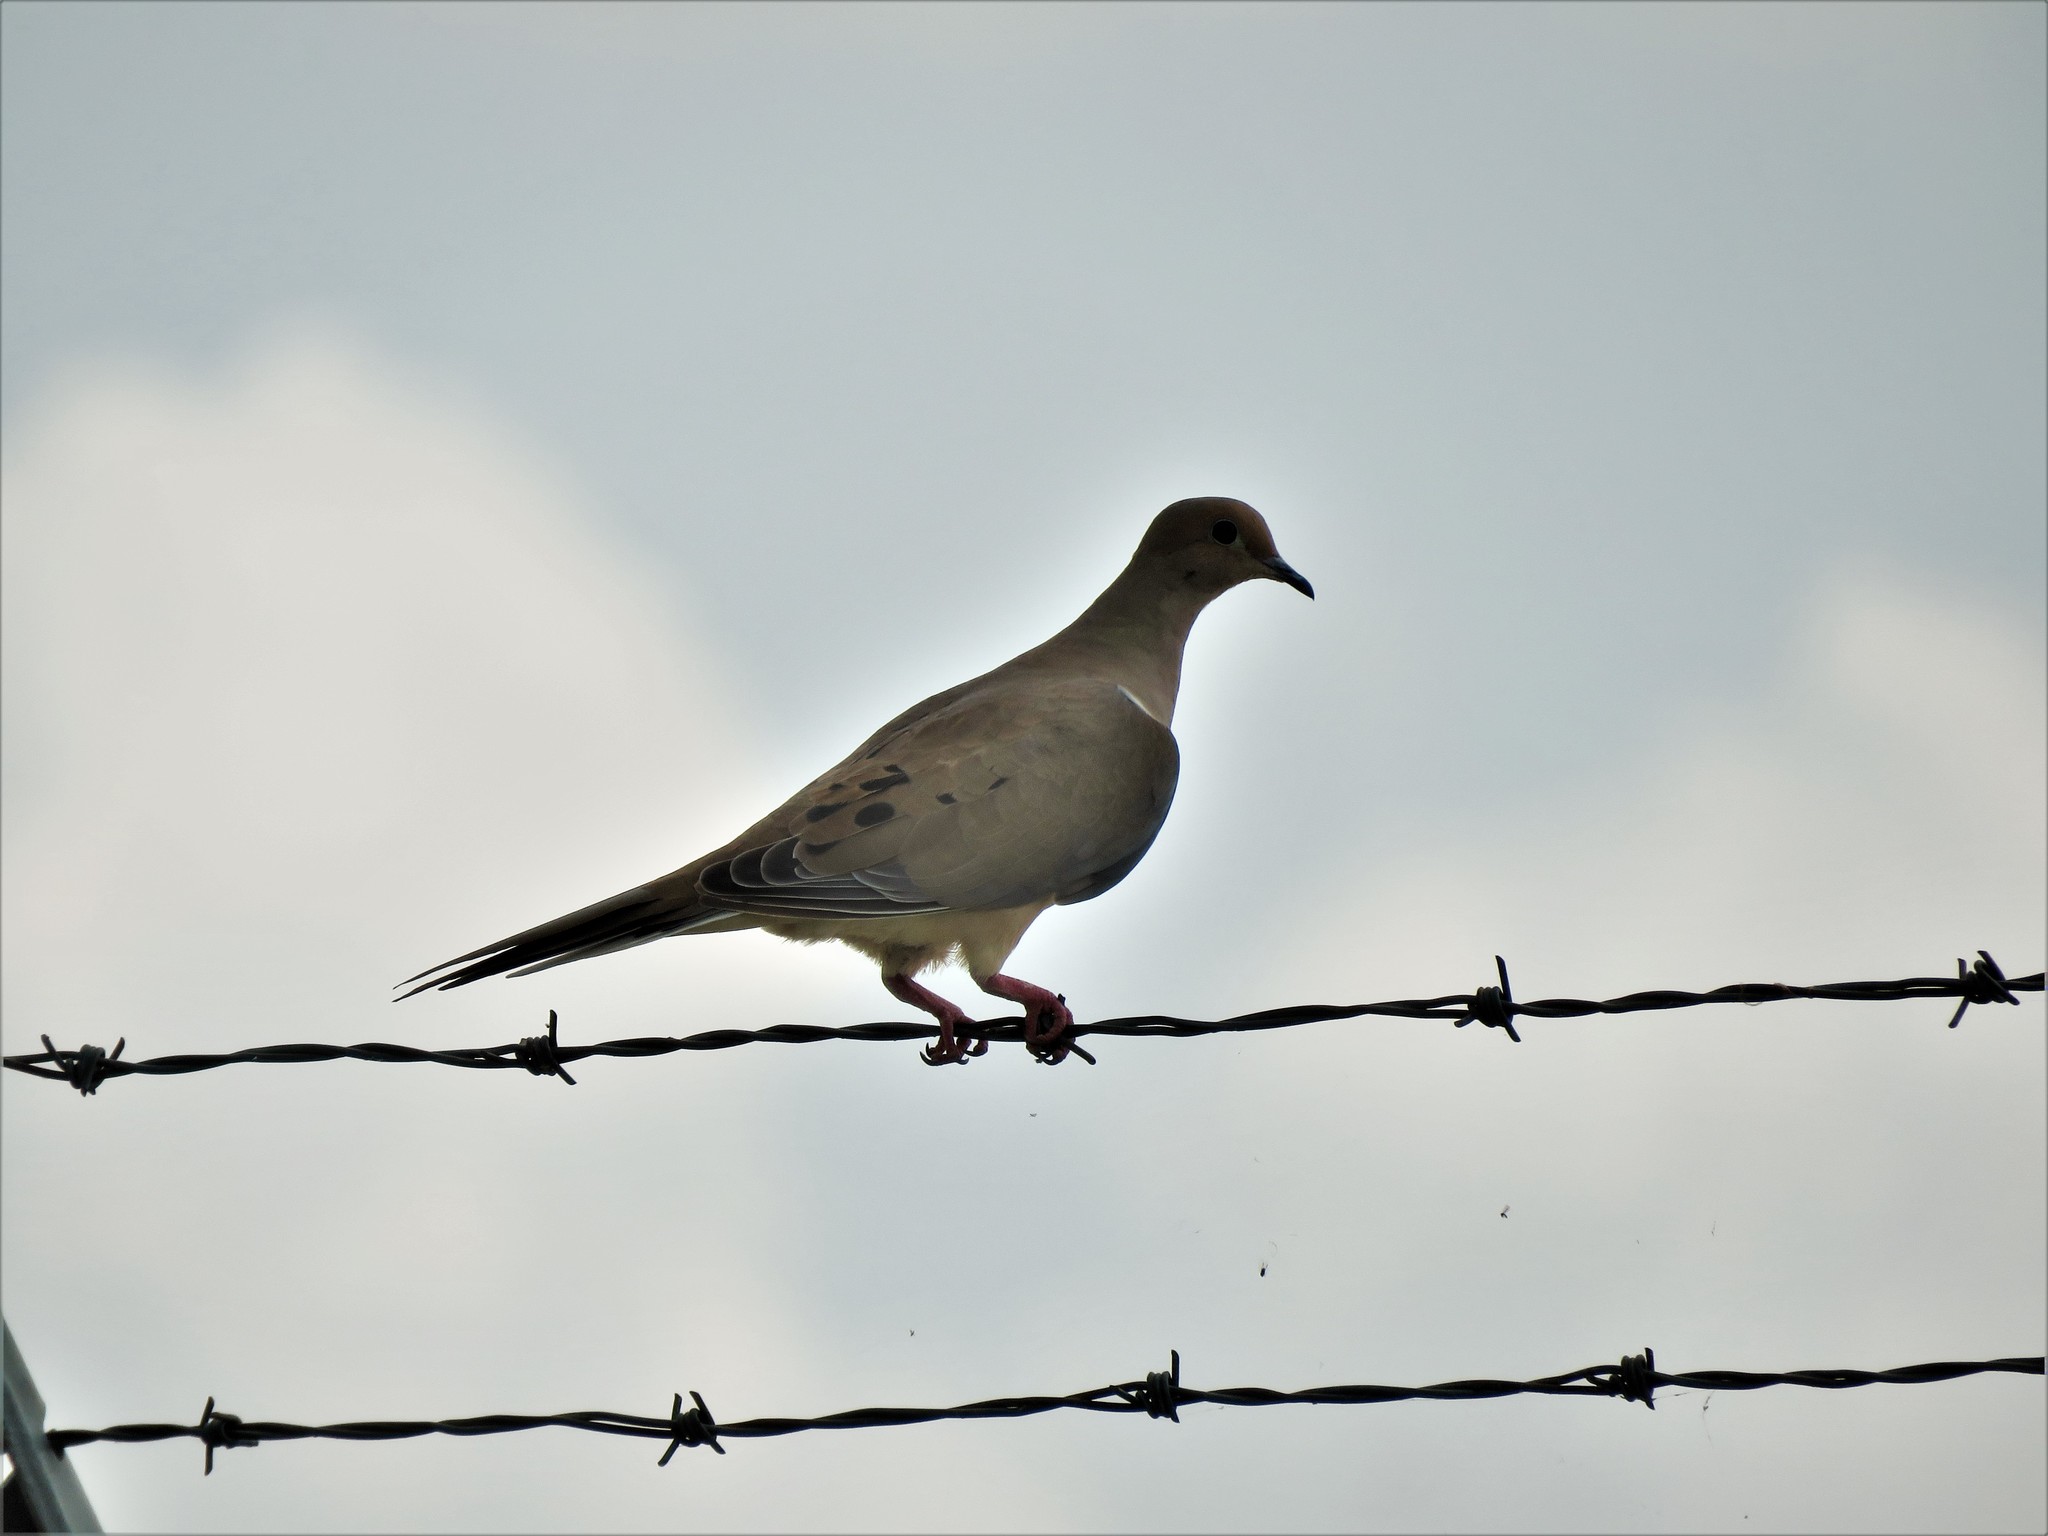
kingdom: Animalia
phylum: Chordata
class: Aves
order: Columbiformes
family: Columbidae
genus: Zenaida
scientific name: Zenaida macroura
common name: Mourning dove
